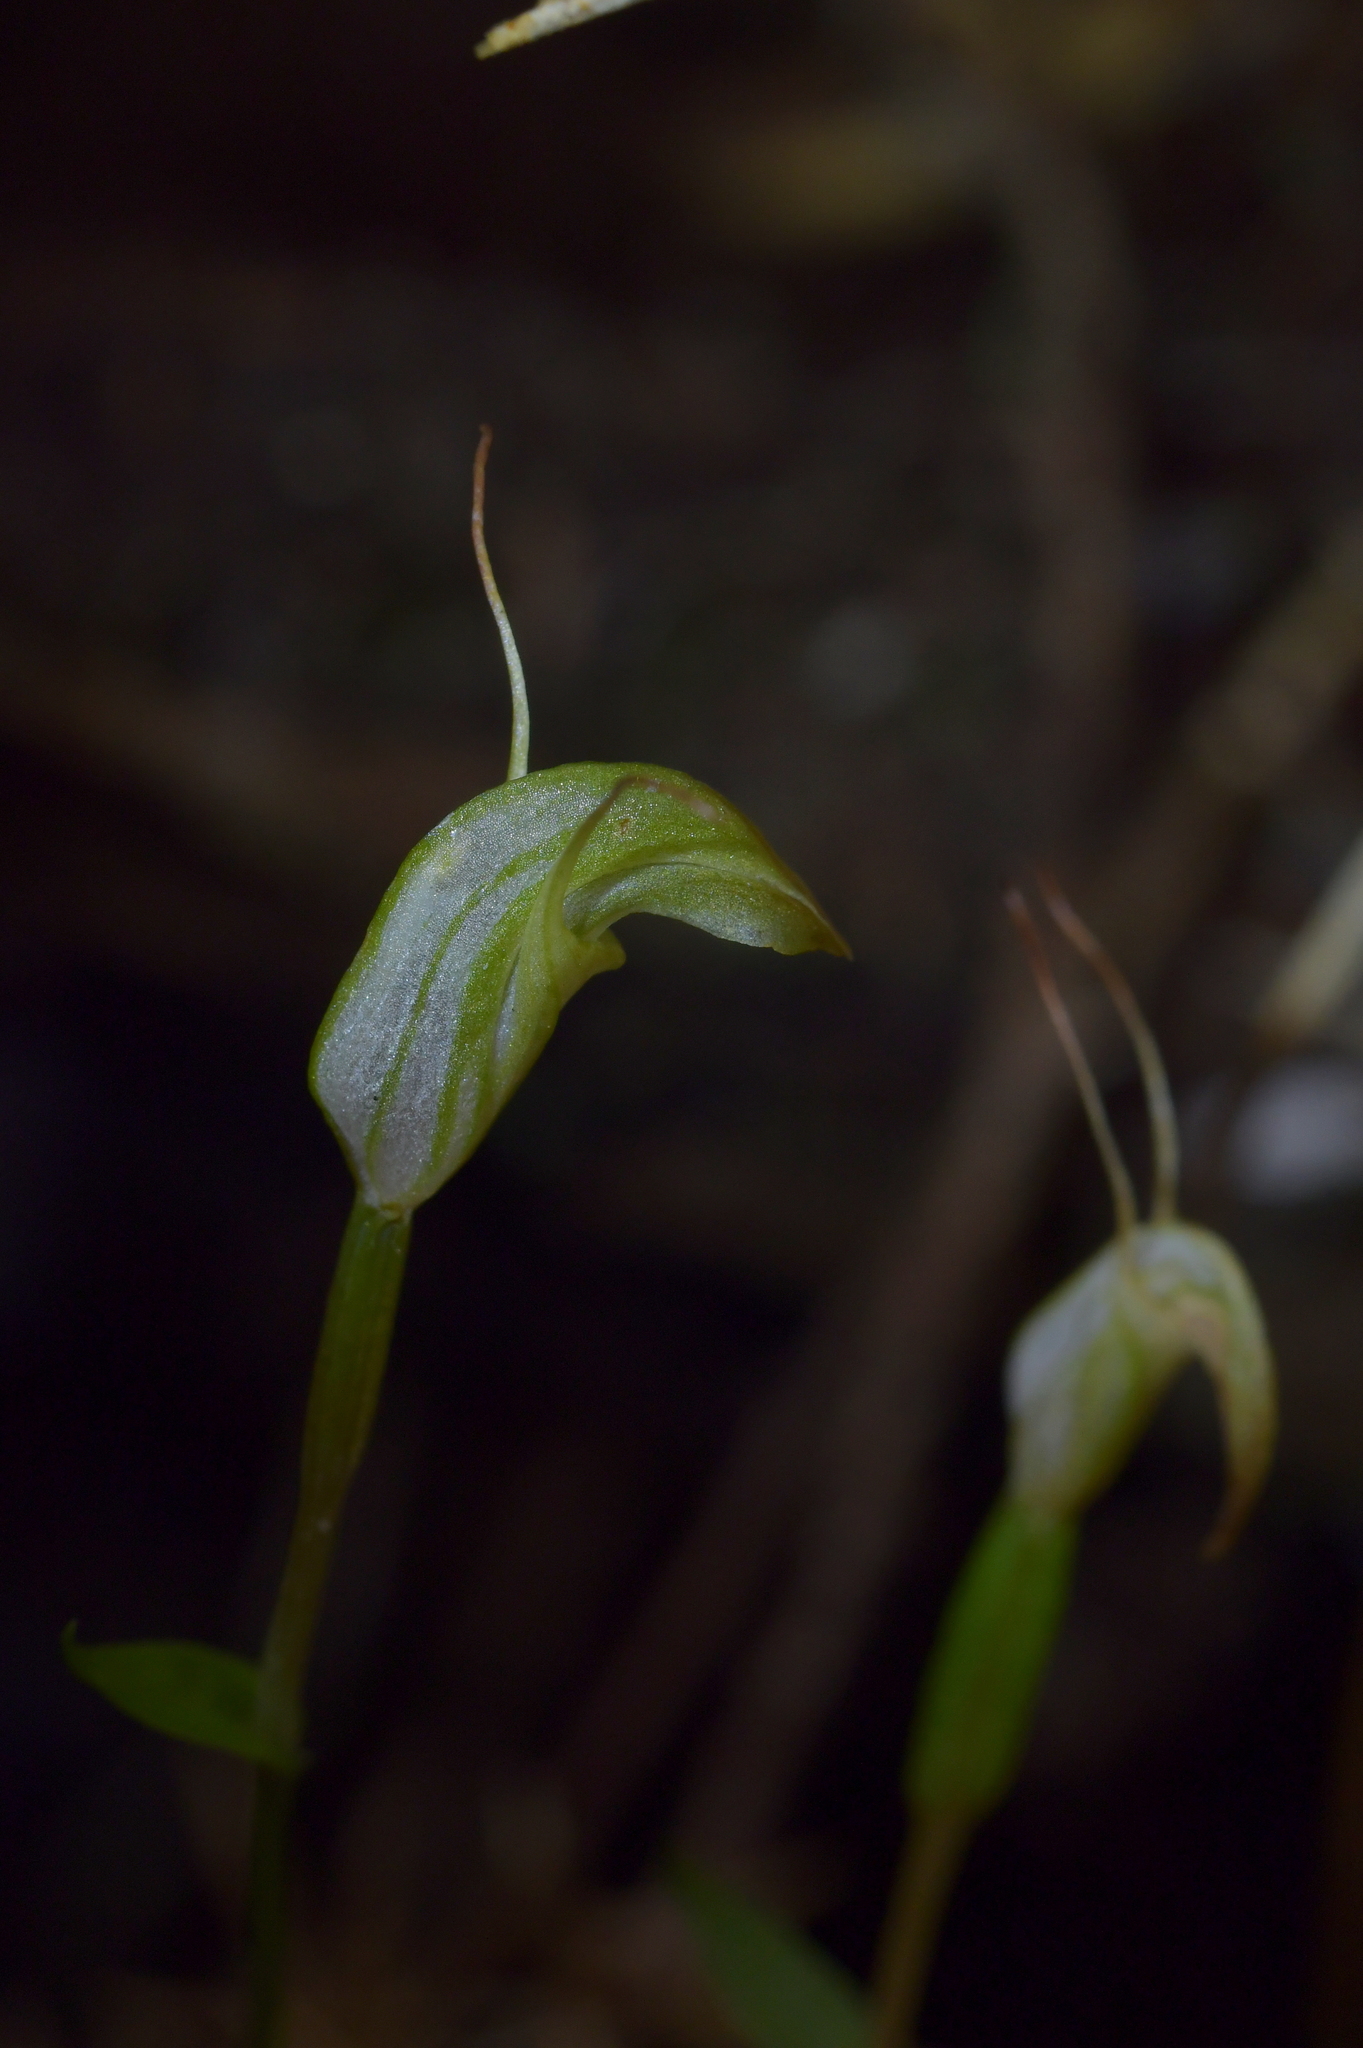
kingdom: Plantae
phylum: Tracheophyta
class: Liliopsida
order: Asparagales
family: Orchidaceae
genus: Pterostylis
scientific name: Pterostylis trullifolia
